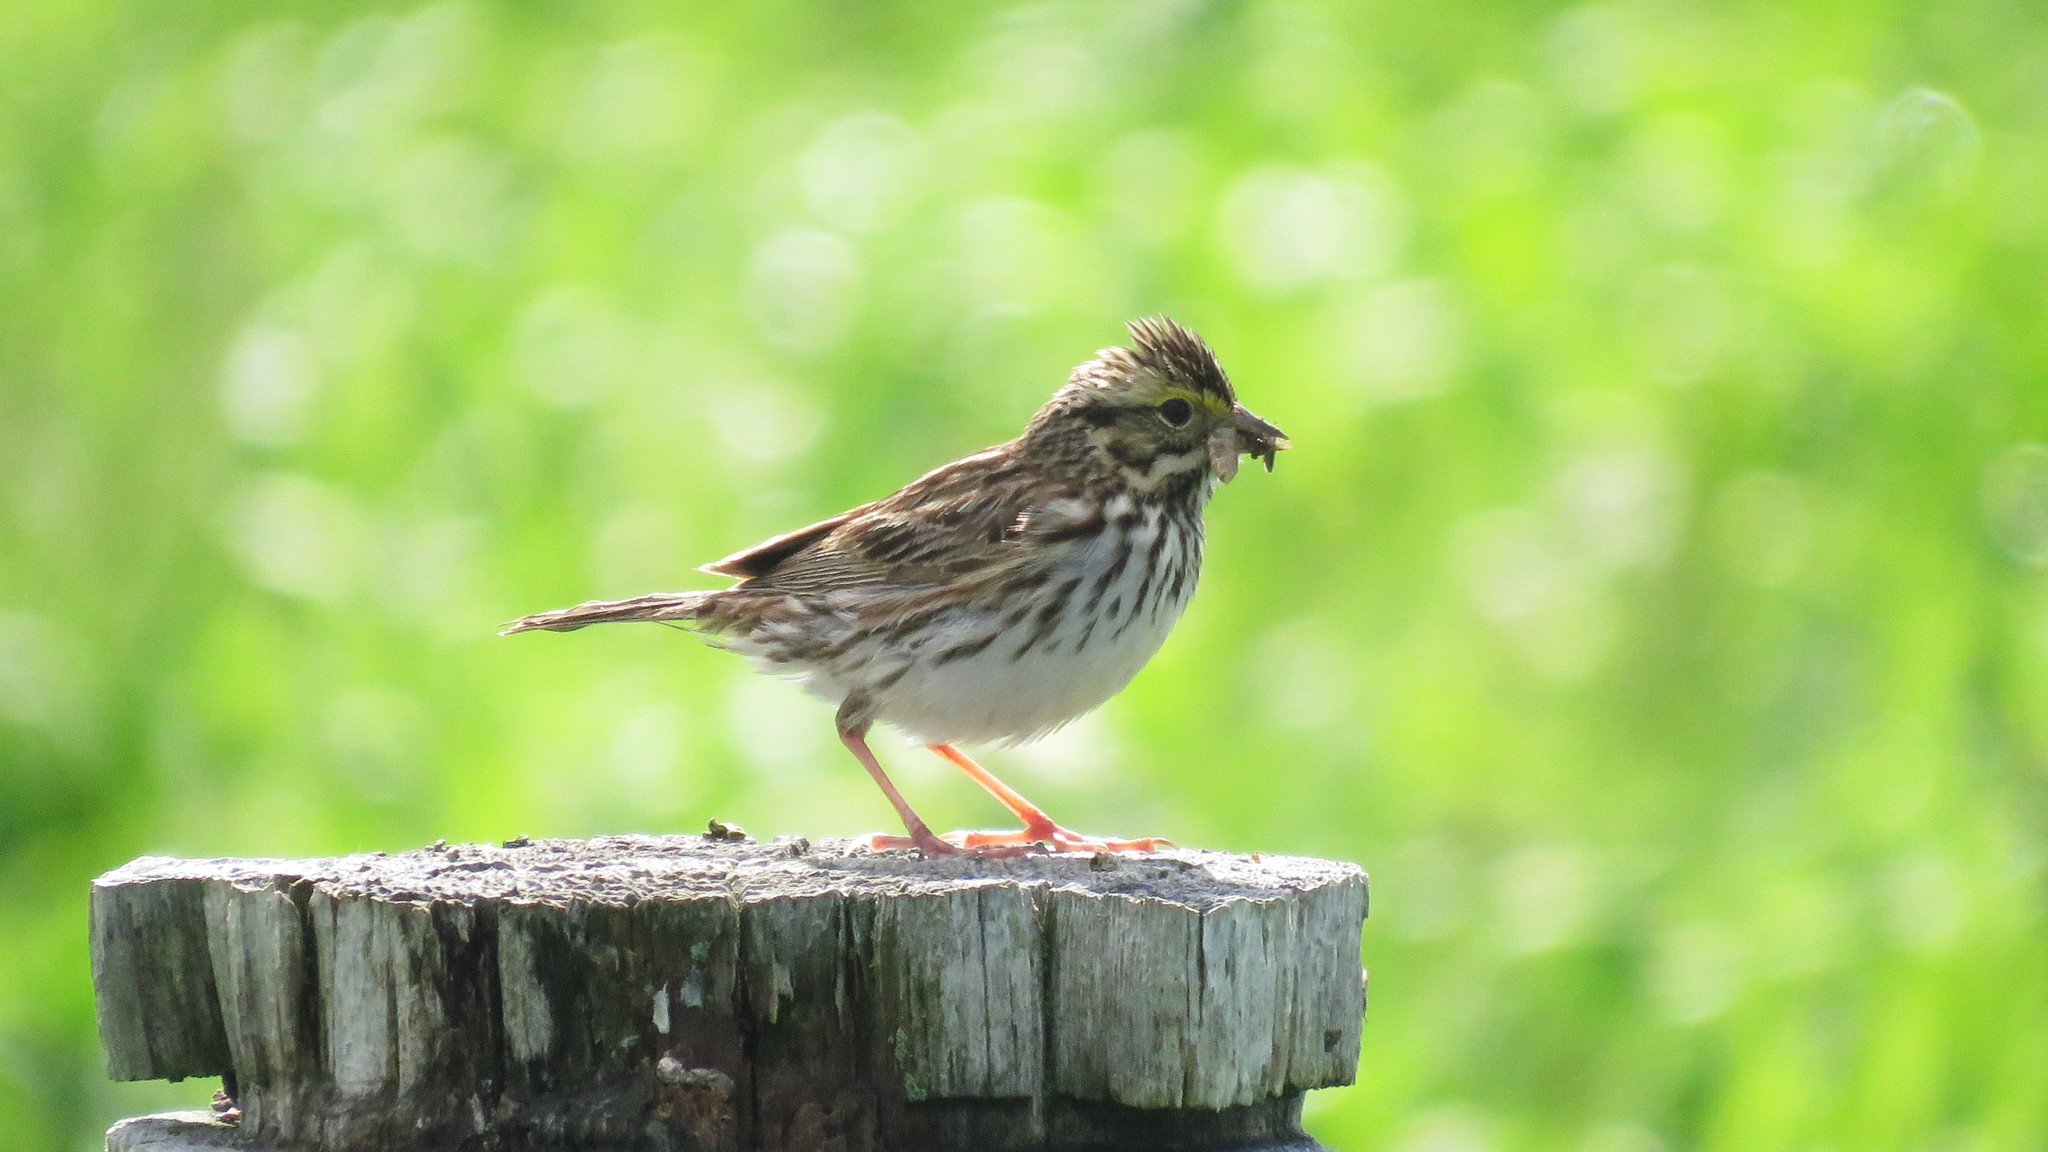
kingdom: Animalia
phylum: Chordata
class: Aves
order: Passeriformes
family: Passerellidae
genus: Passerculus
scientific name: Passerculus sandwichensis
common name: Savannah sparrow
